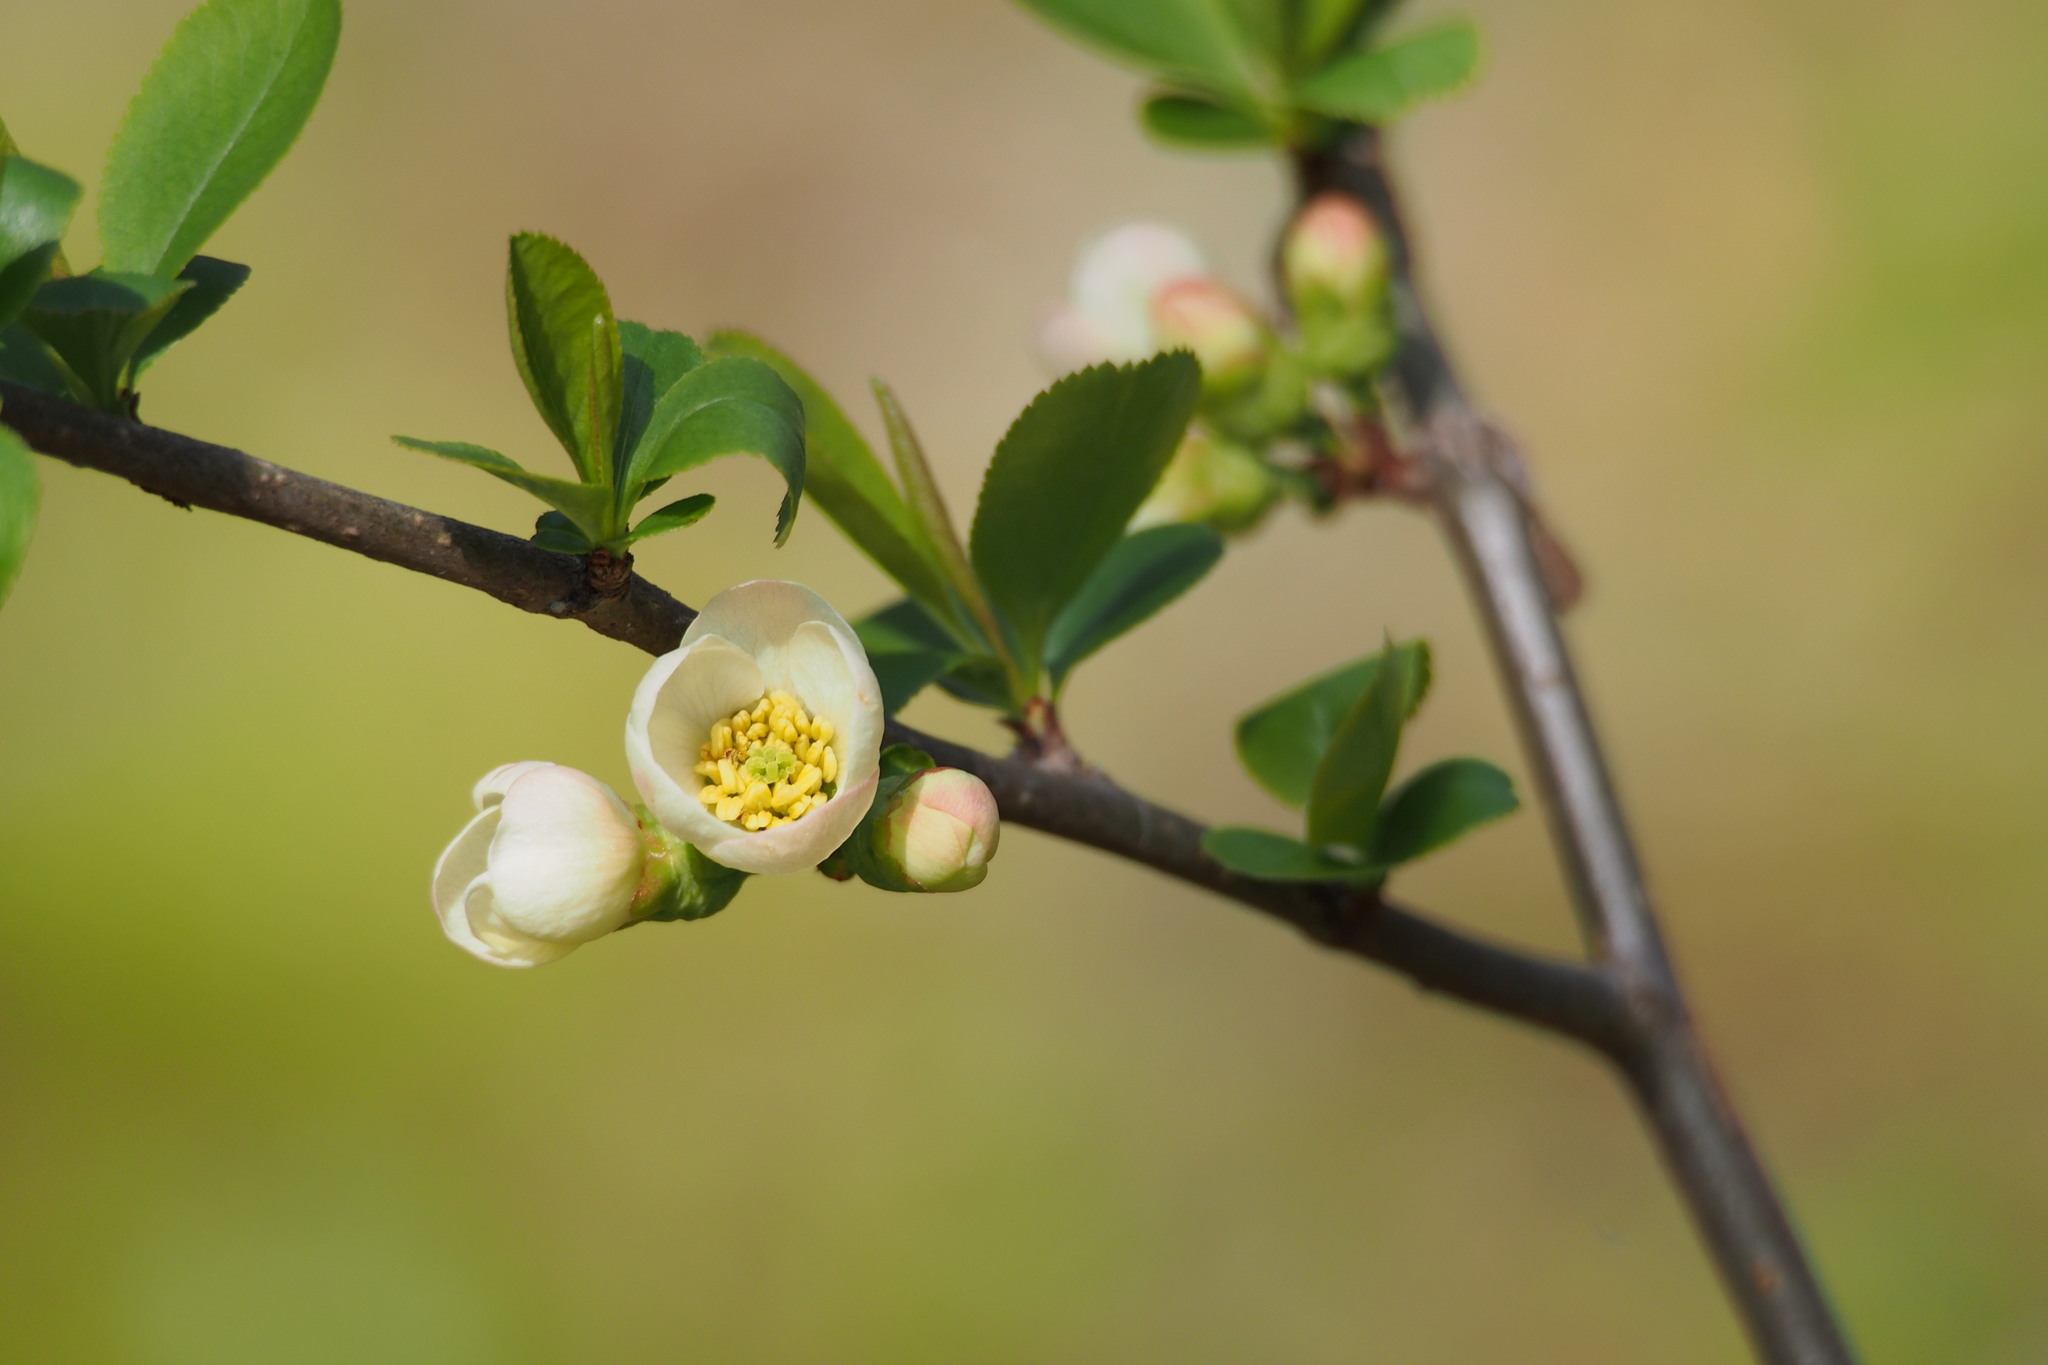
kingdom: Plantae
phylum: Tracheophyta
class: Magnoliopsida
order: Rosales
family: Rosaceae
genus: Chaenomeles
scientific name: Chaenomeles speciosa
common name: Japanese quince
